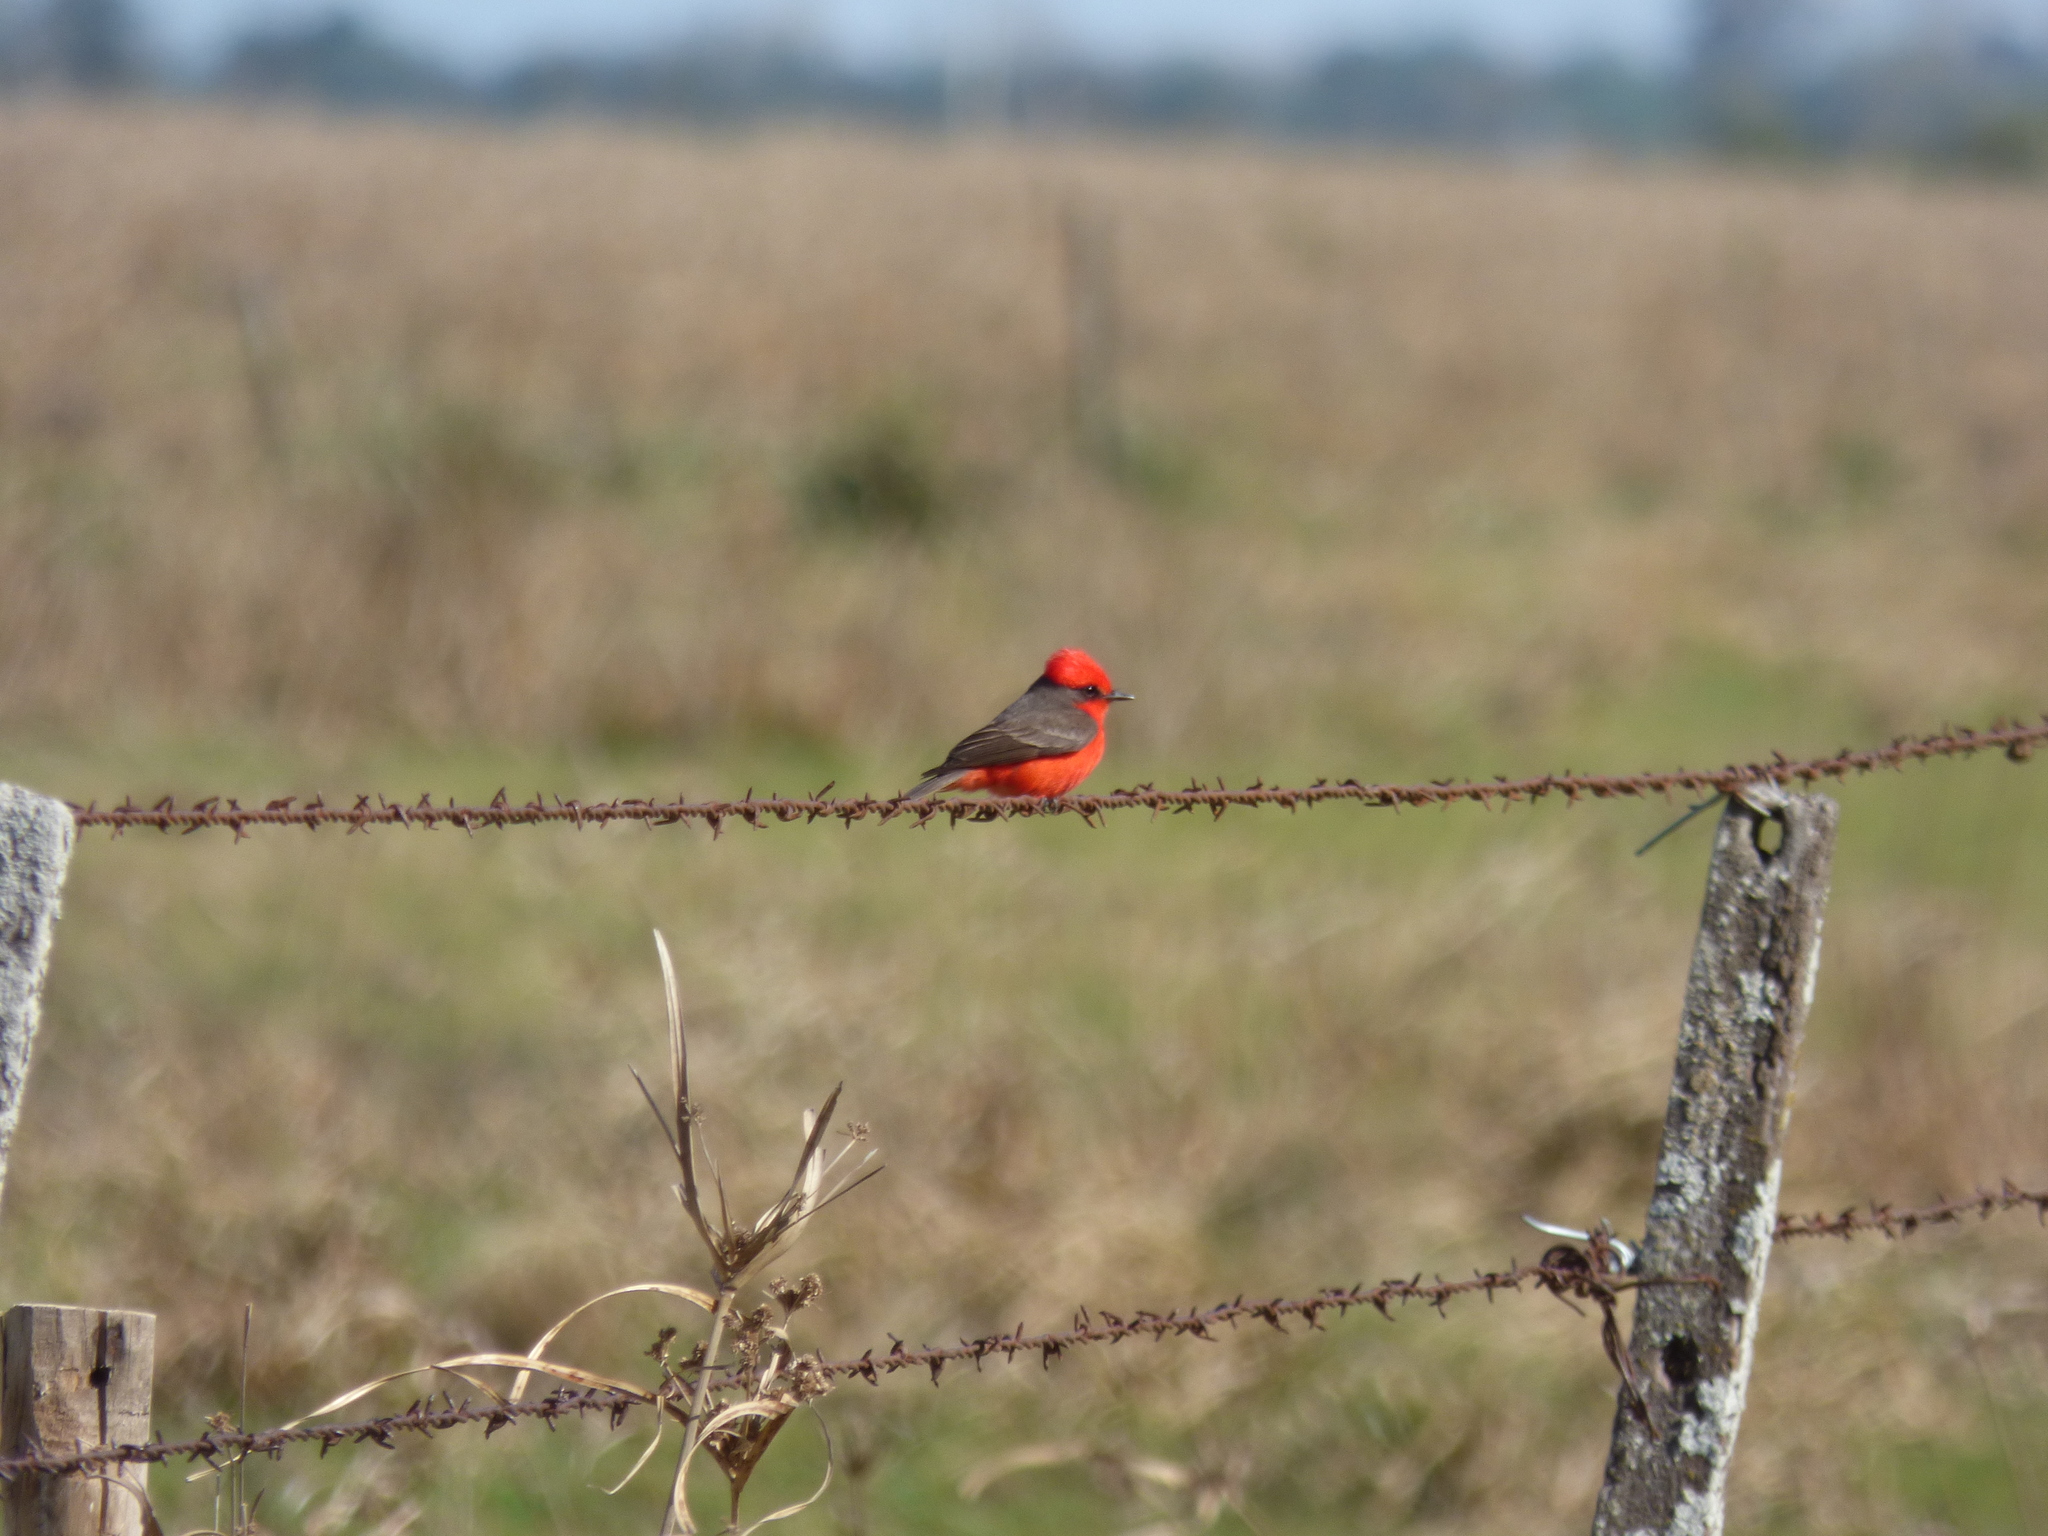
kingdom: Animalia
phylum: Chordata
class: Aves
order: Passeriformes
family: Tyrannidae
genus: Pyrocephalus
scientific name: Pyrocephalus rubinus
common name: Vermilion flycatcher
